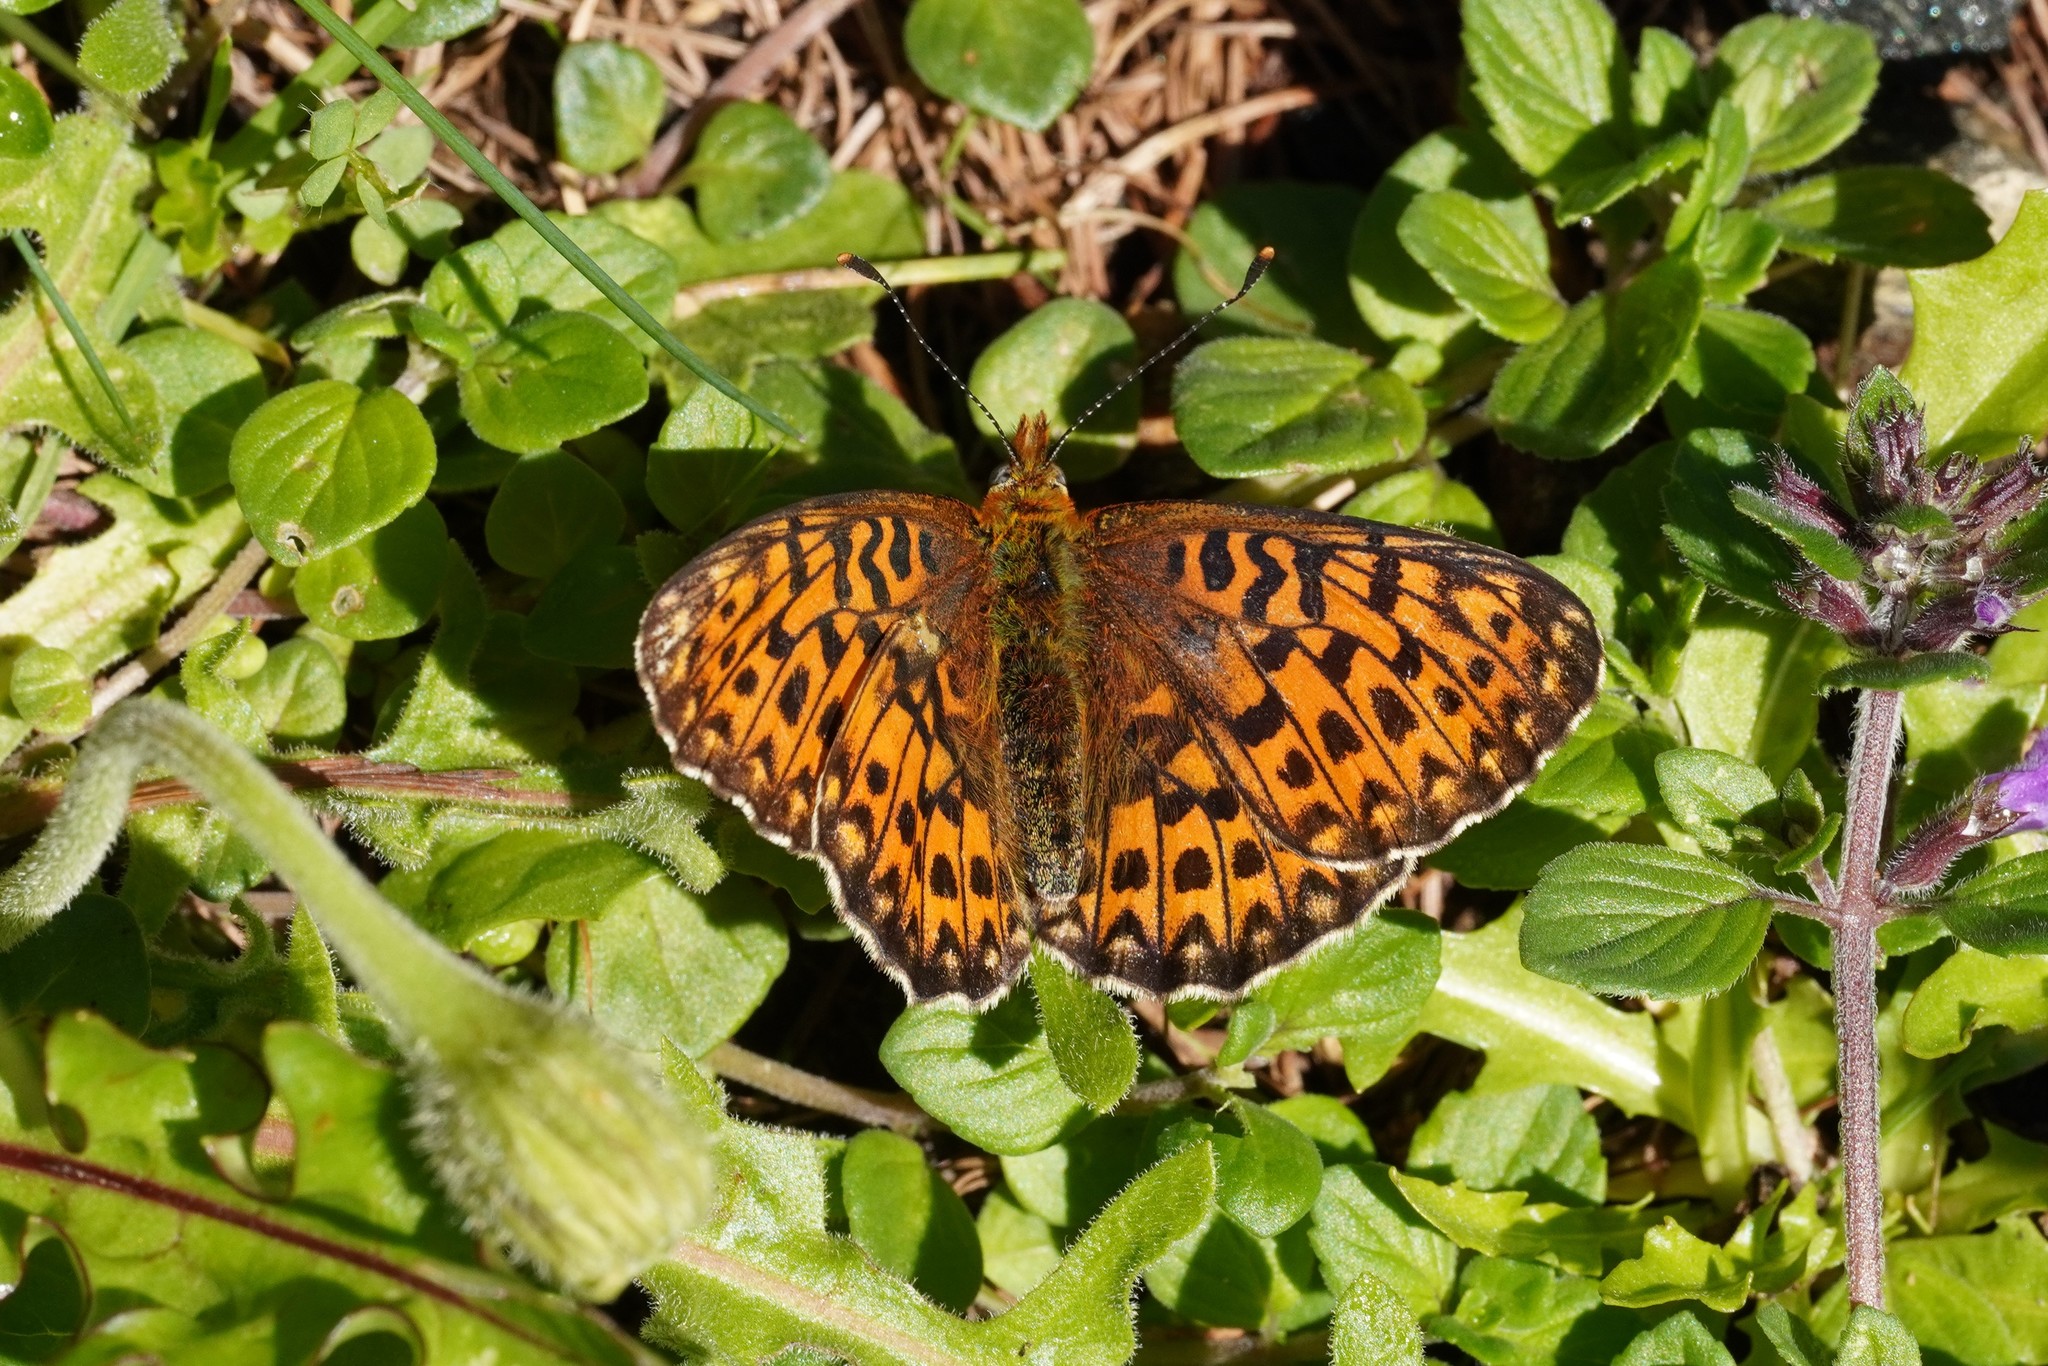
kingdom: Animalia
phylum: Arthropoda
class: Insecta
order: Lepidoptera
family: Nymphalidae
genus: Clossiana
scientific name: Clossiana euphrosyne
